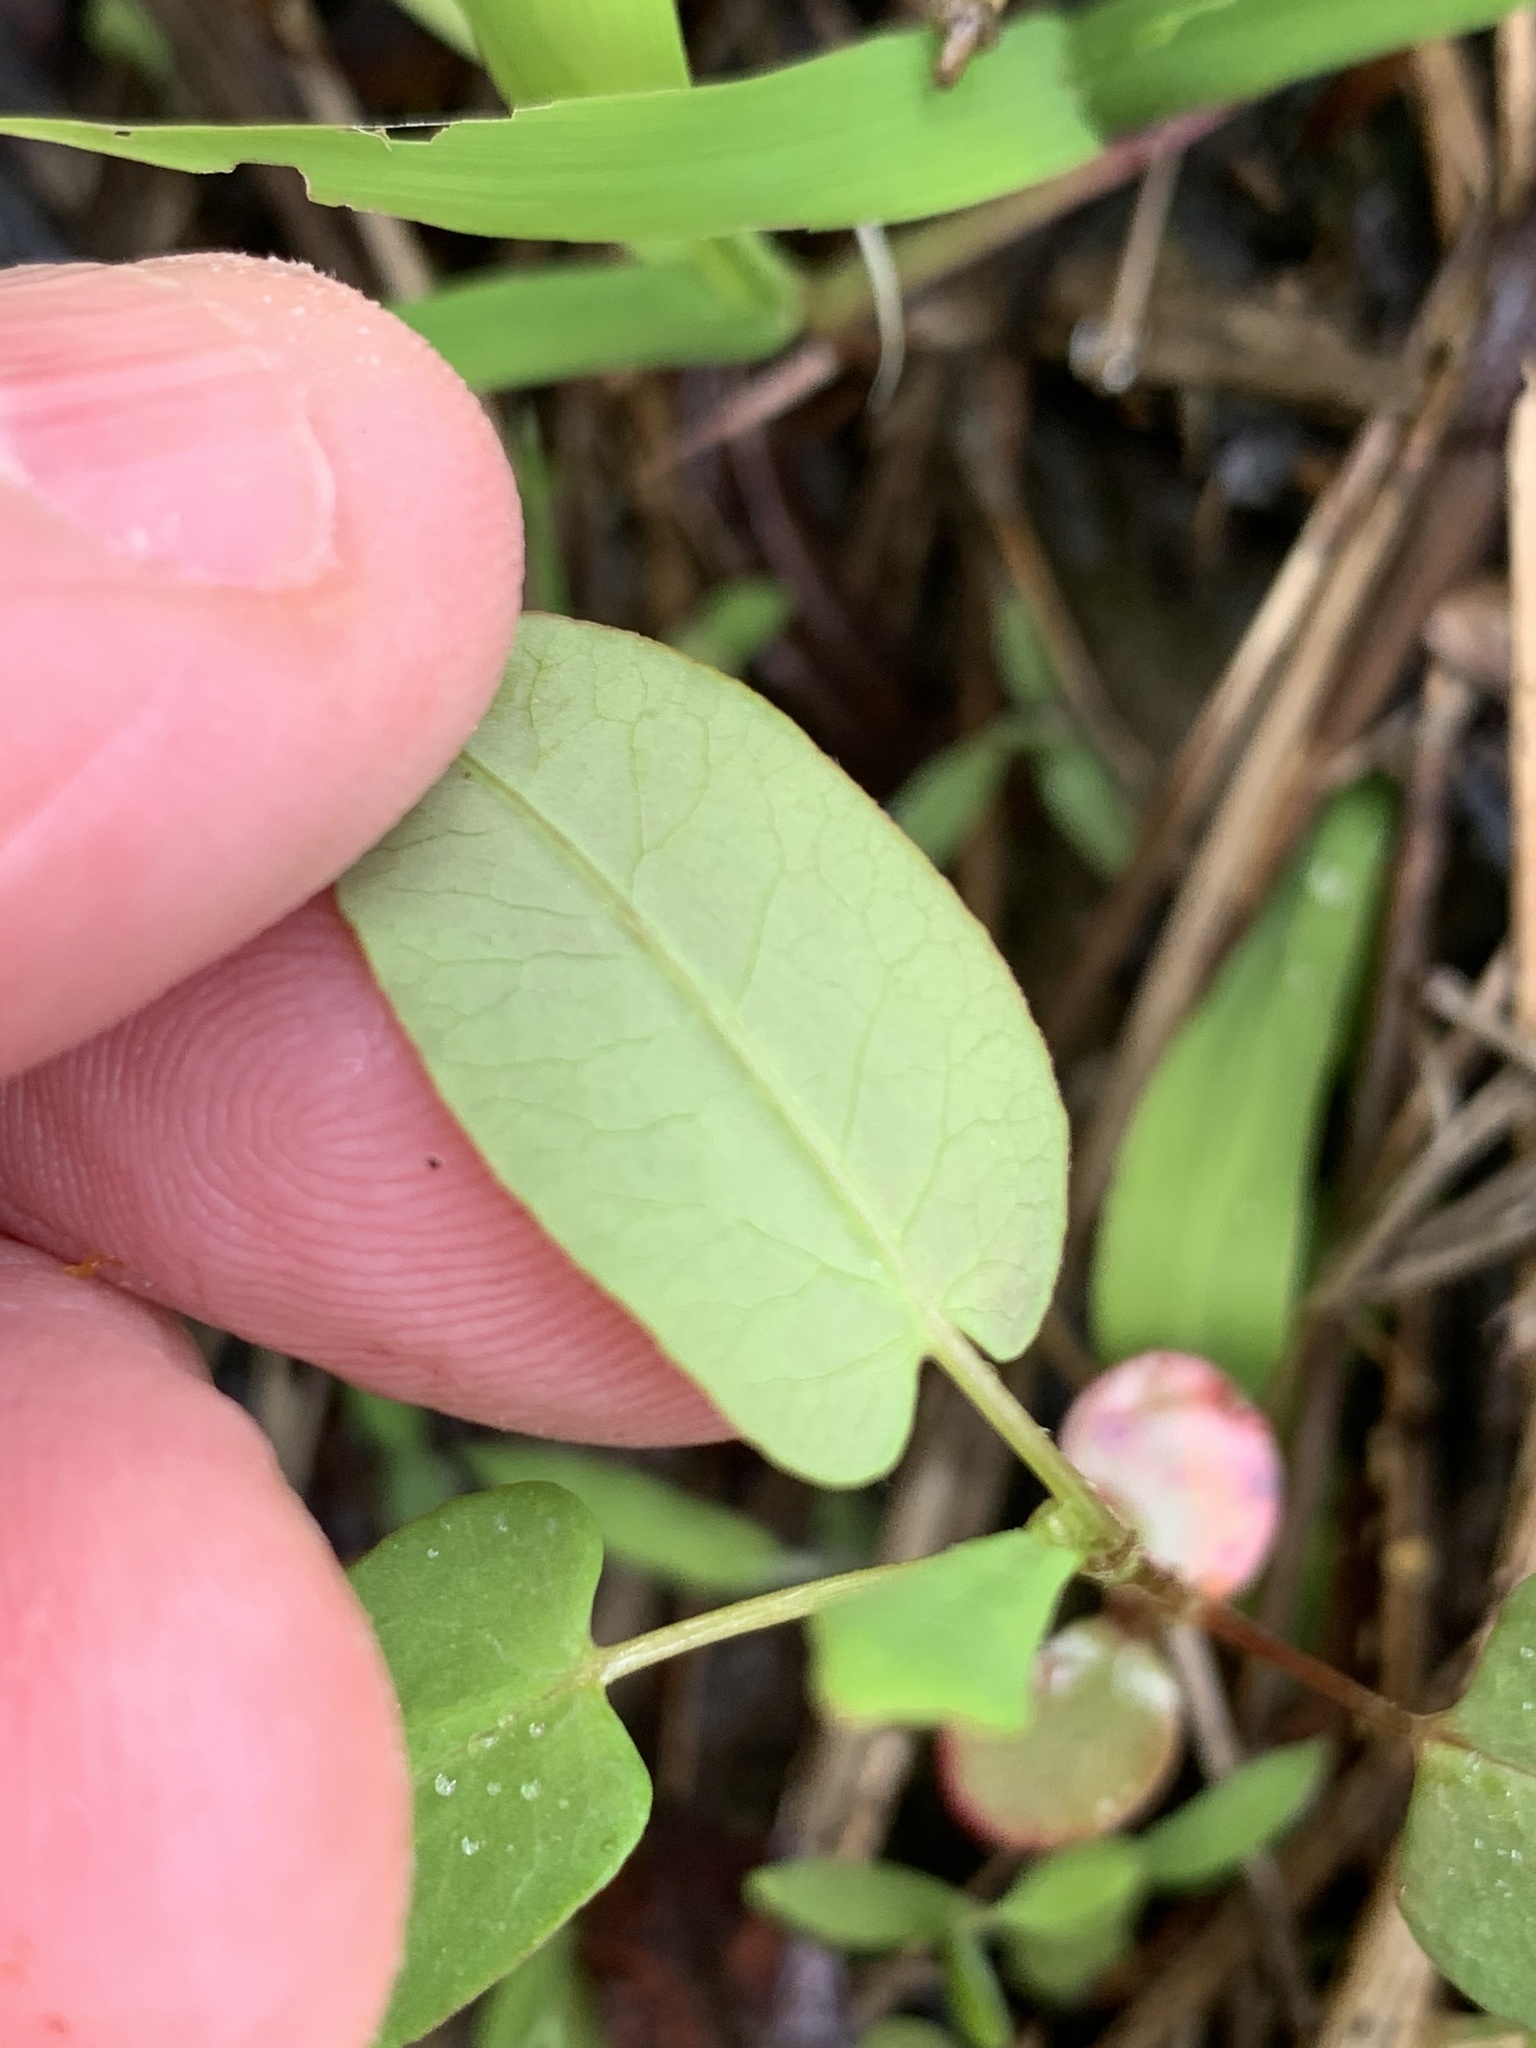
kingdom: Plantae
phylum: Tracheophyta
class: Magnoliopsida
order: Caryophyllales
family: Polygonaceae
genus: Persicaria
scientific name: Persicaria sagittata
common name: American tearthumb
